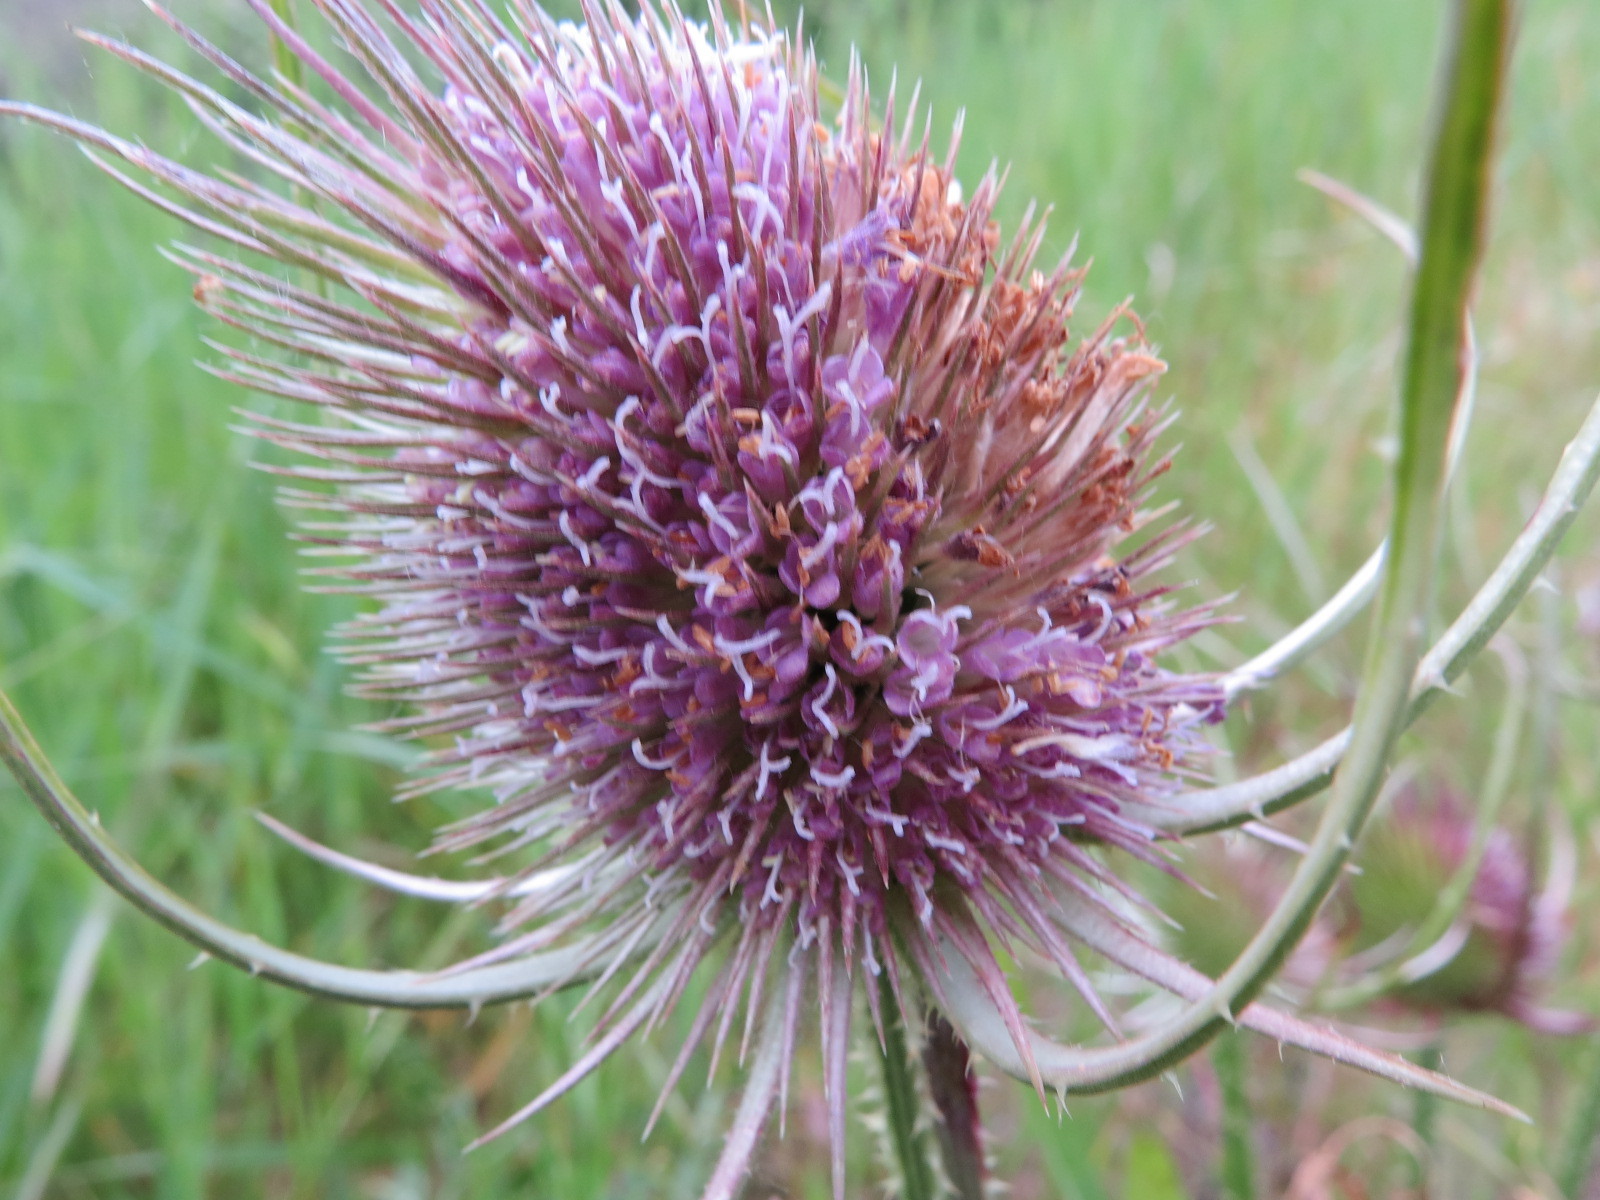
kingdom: Plantae
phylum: Tracheophyta
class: Magnoliopsida
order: Dipsacales
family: Caprifoliaceae
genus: Dipsacus
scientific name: Dipsacus fullonum
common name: Teasel
